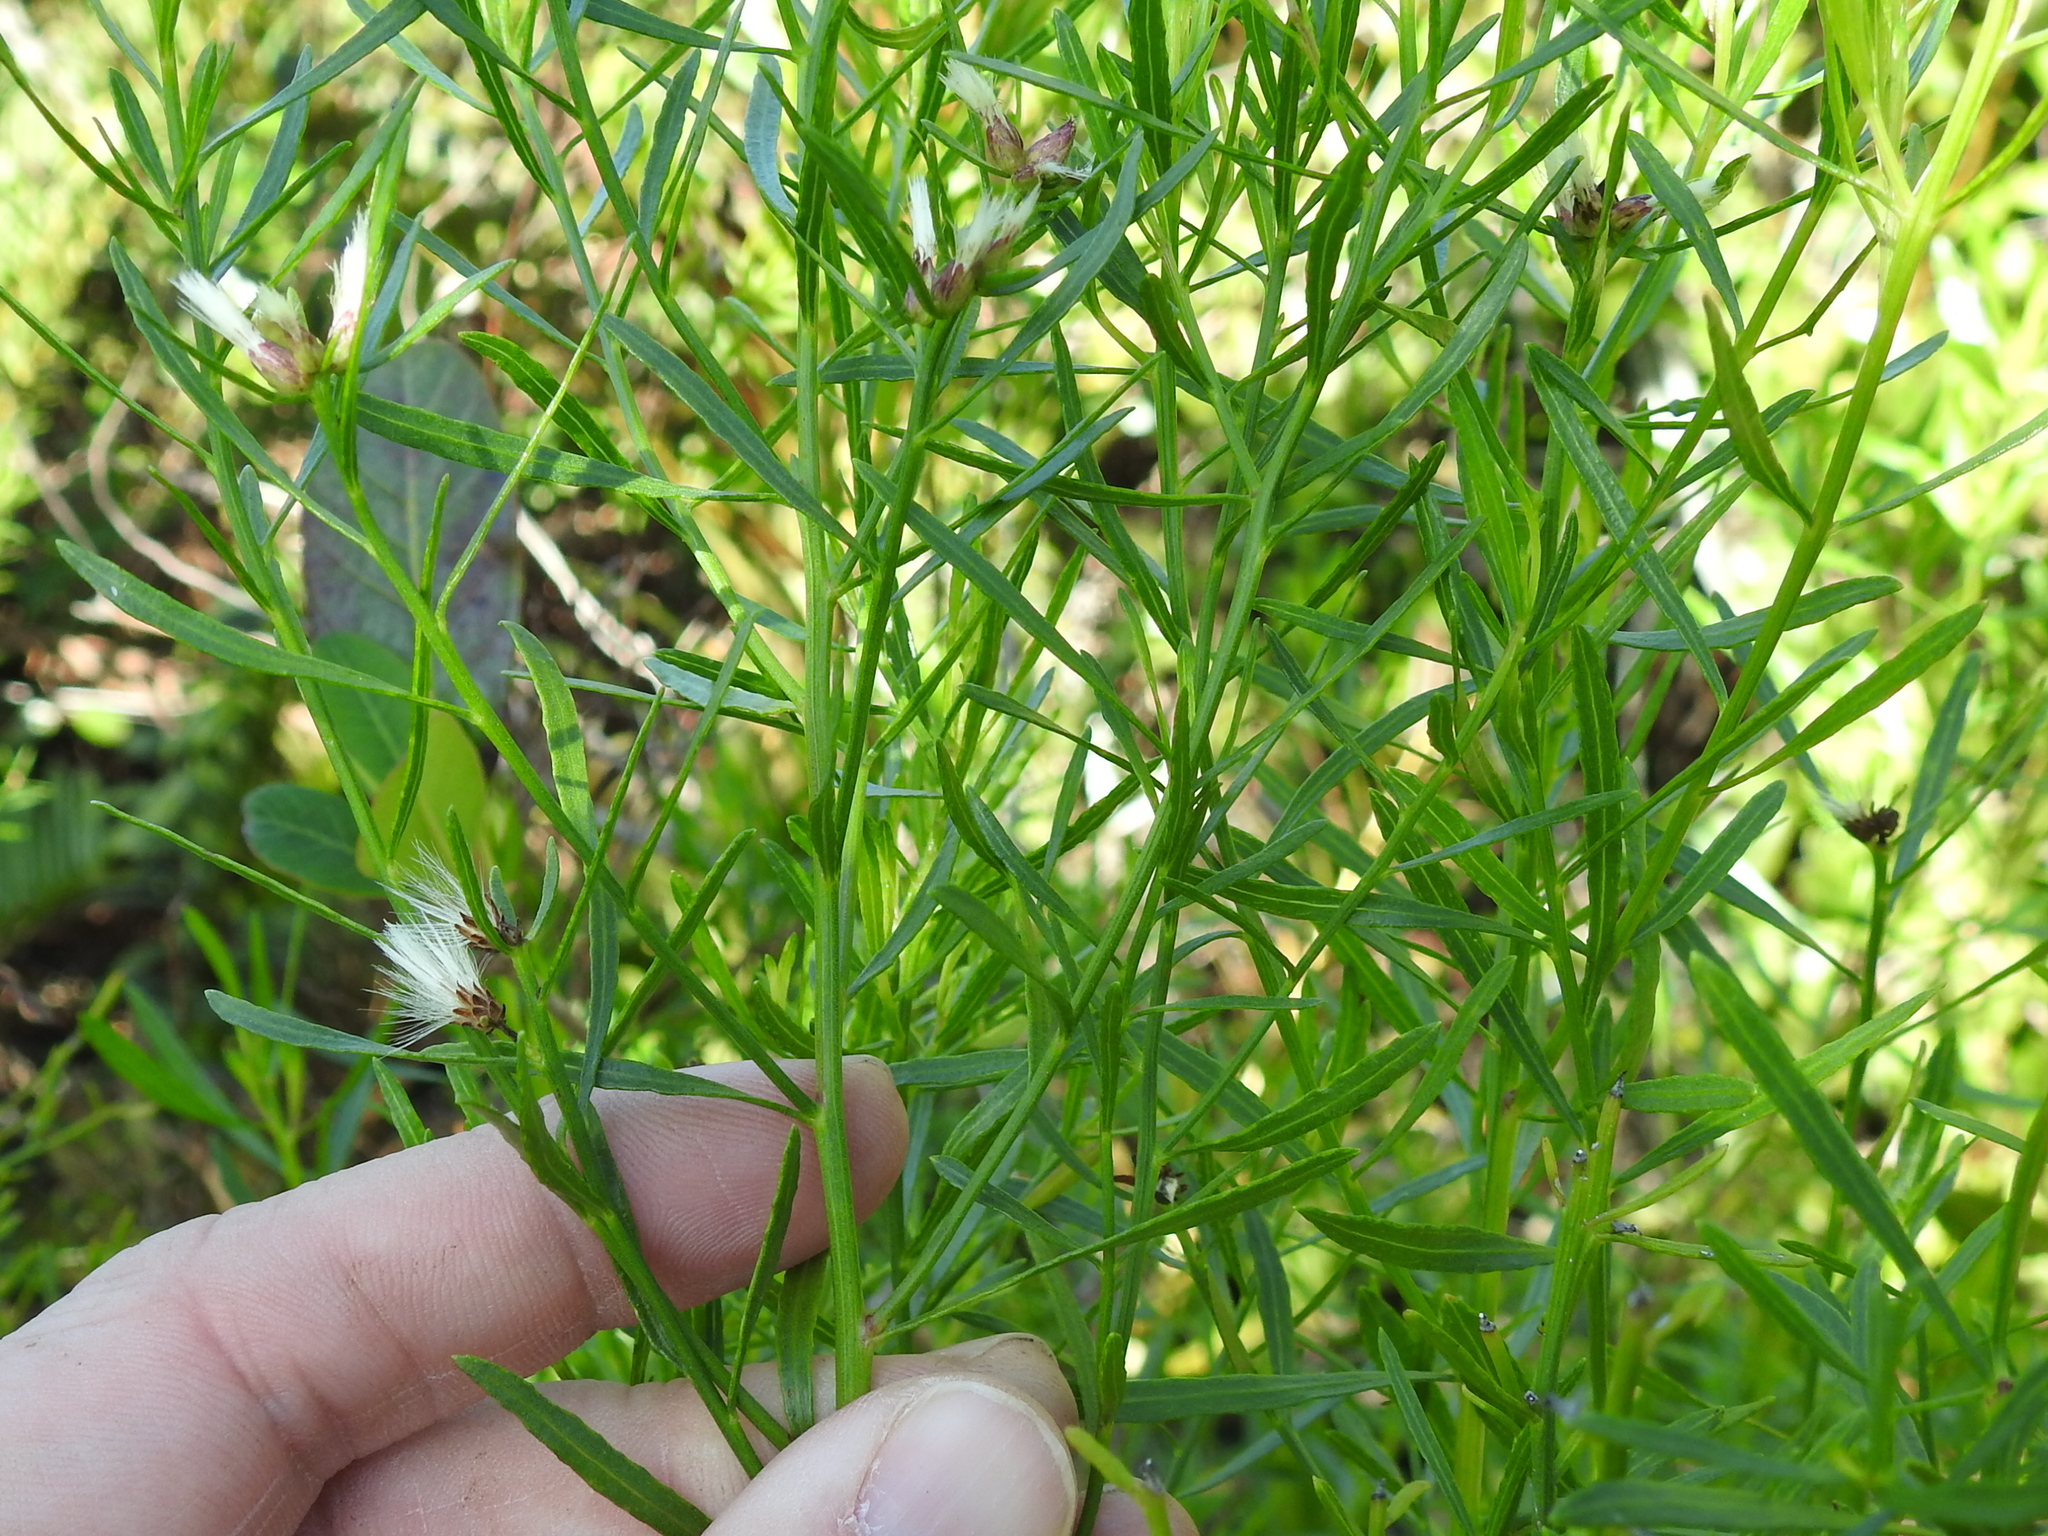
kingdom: Plantae
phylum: Tracheophyta
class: Magnoliopsida
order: Asterales
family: Asteraceae
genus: Baccharis
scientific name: Baccharis angustifolia
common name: Narrow-leaf baccharis
